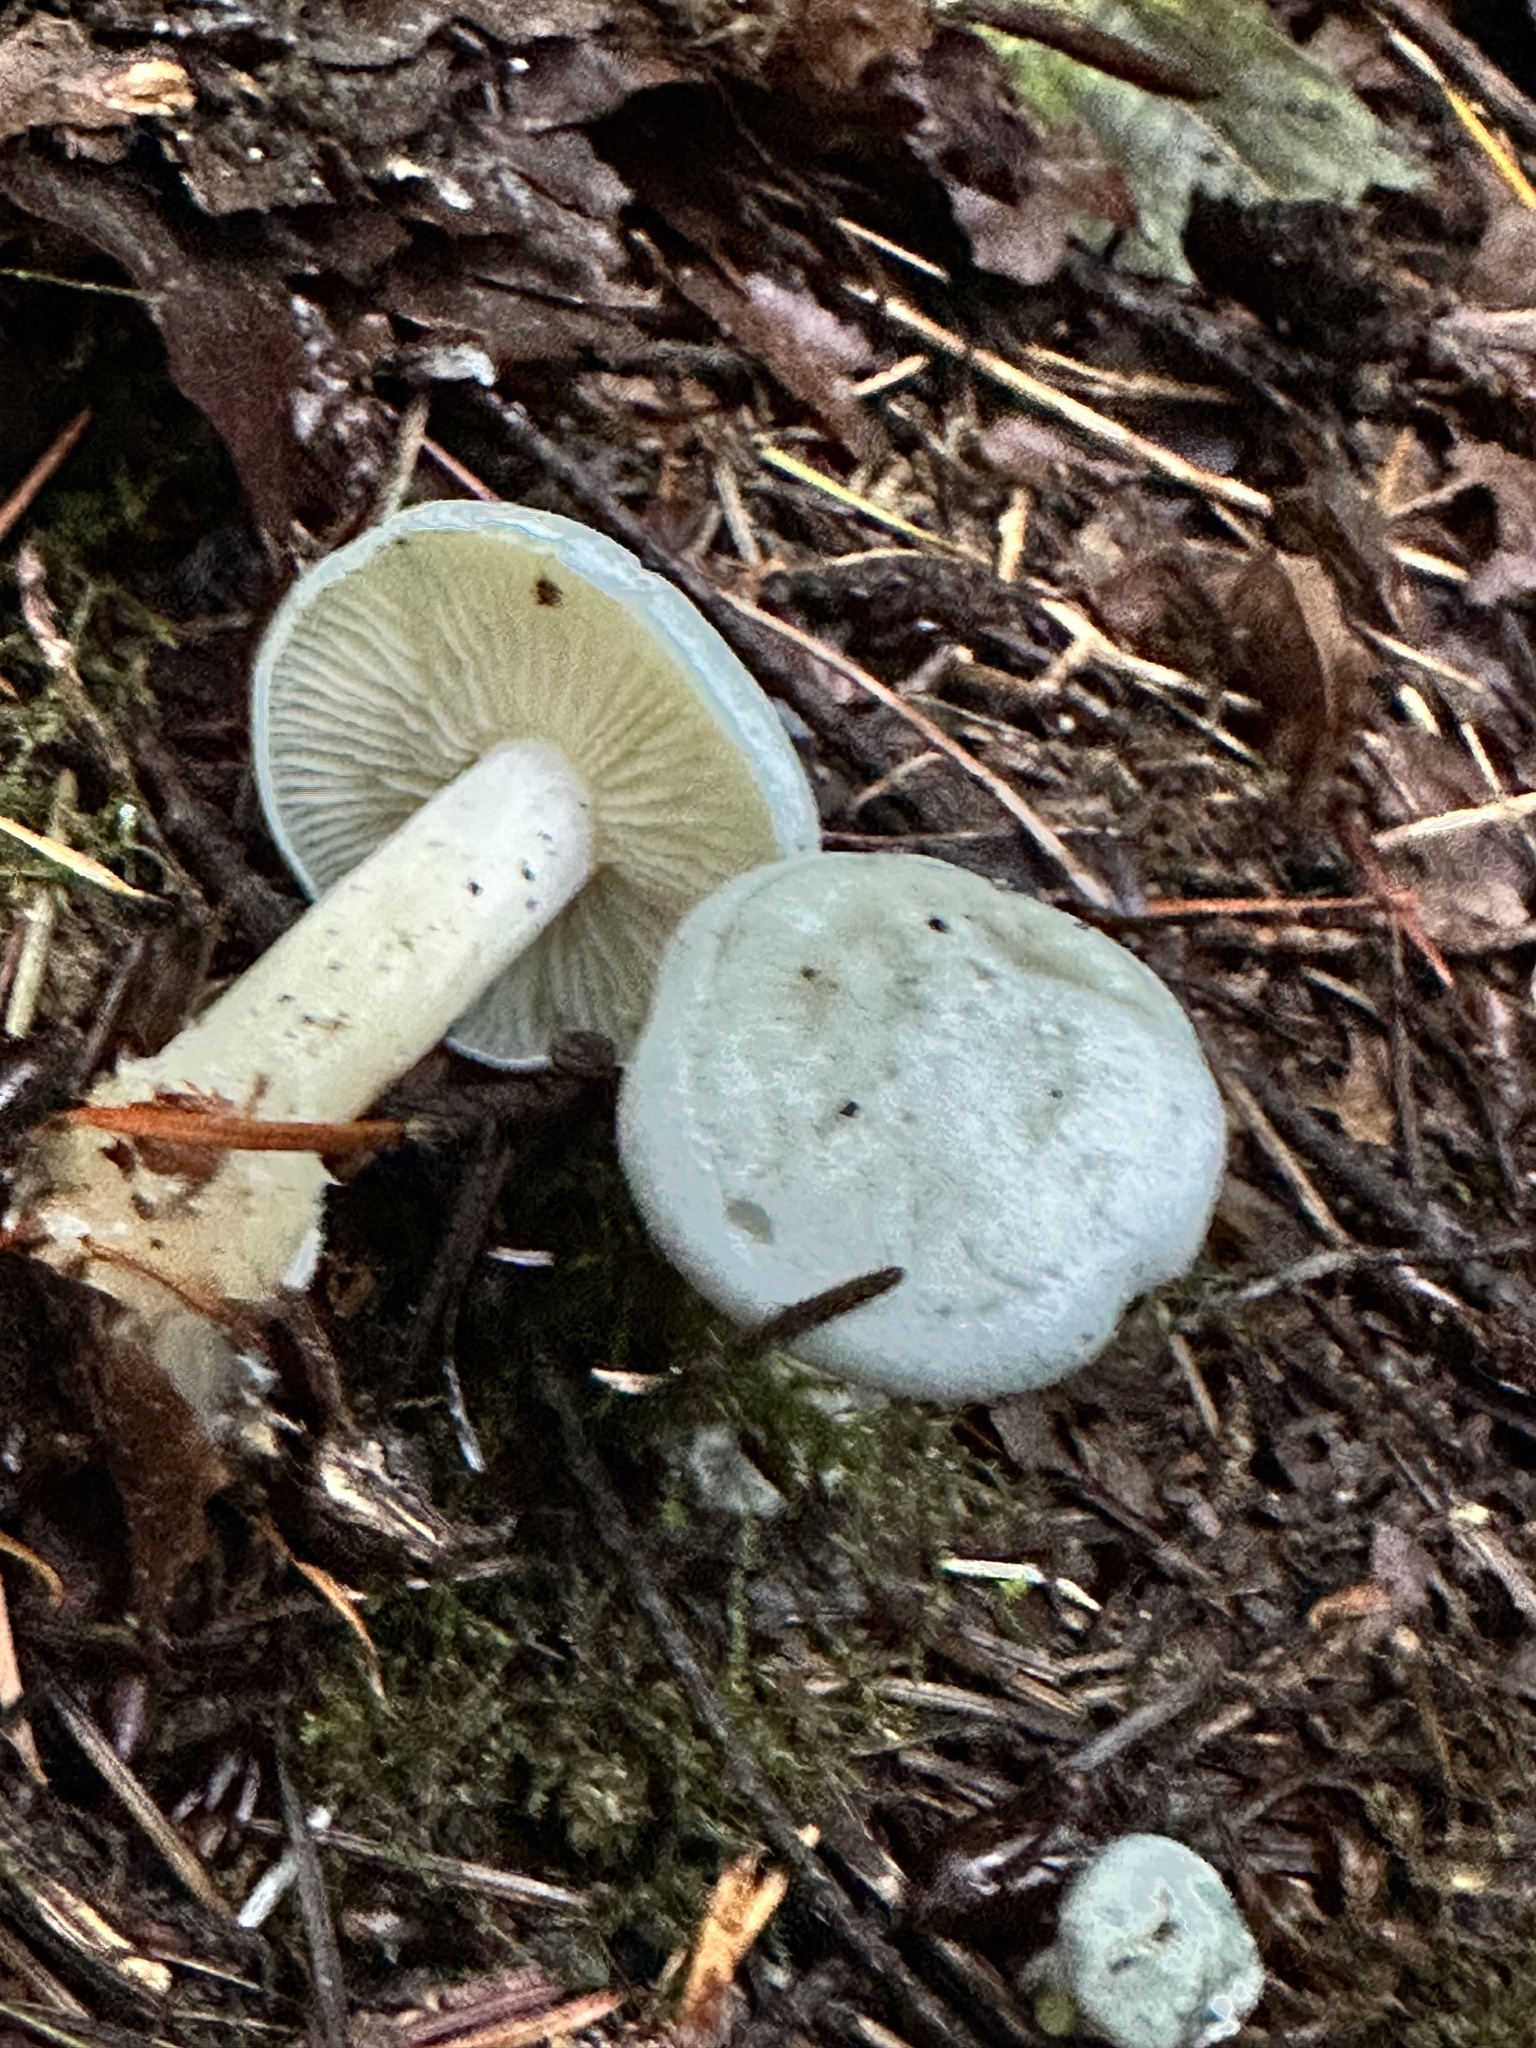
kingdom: Fungi
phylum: Basidiomycota
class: Agaricomycetes
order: Agaricales
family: Tricholomataceae
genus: Clitocybe
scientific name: Clitocybe fragrans
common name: Fragrant funnel
